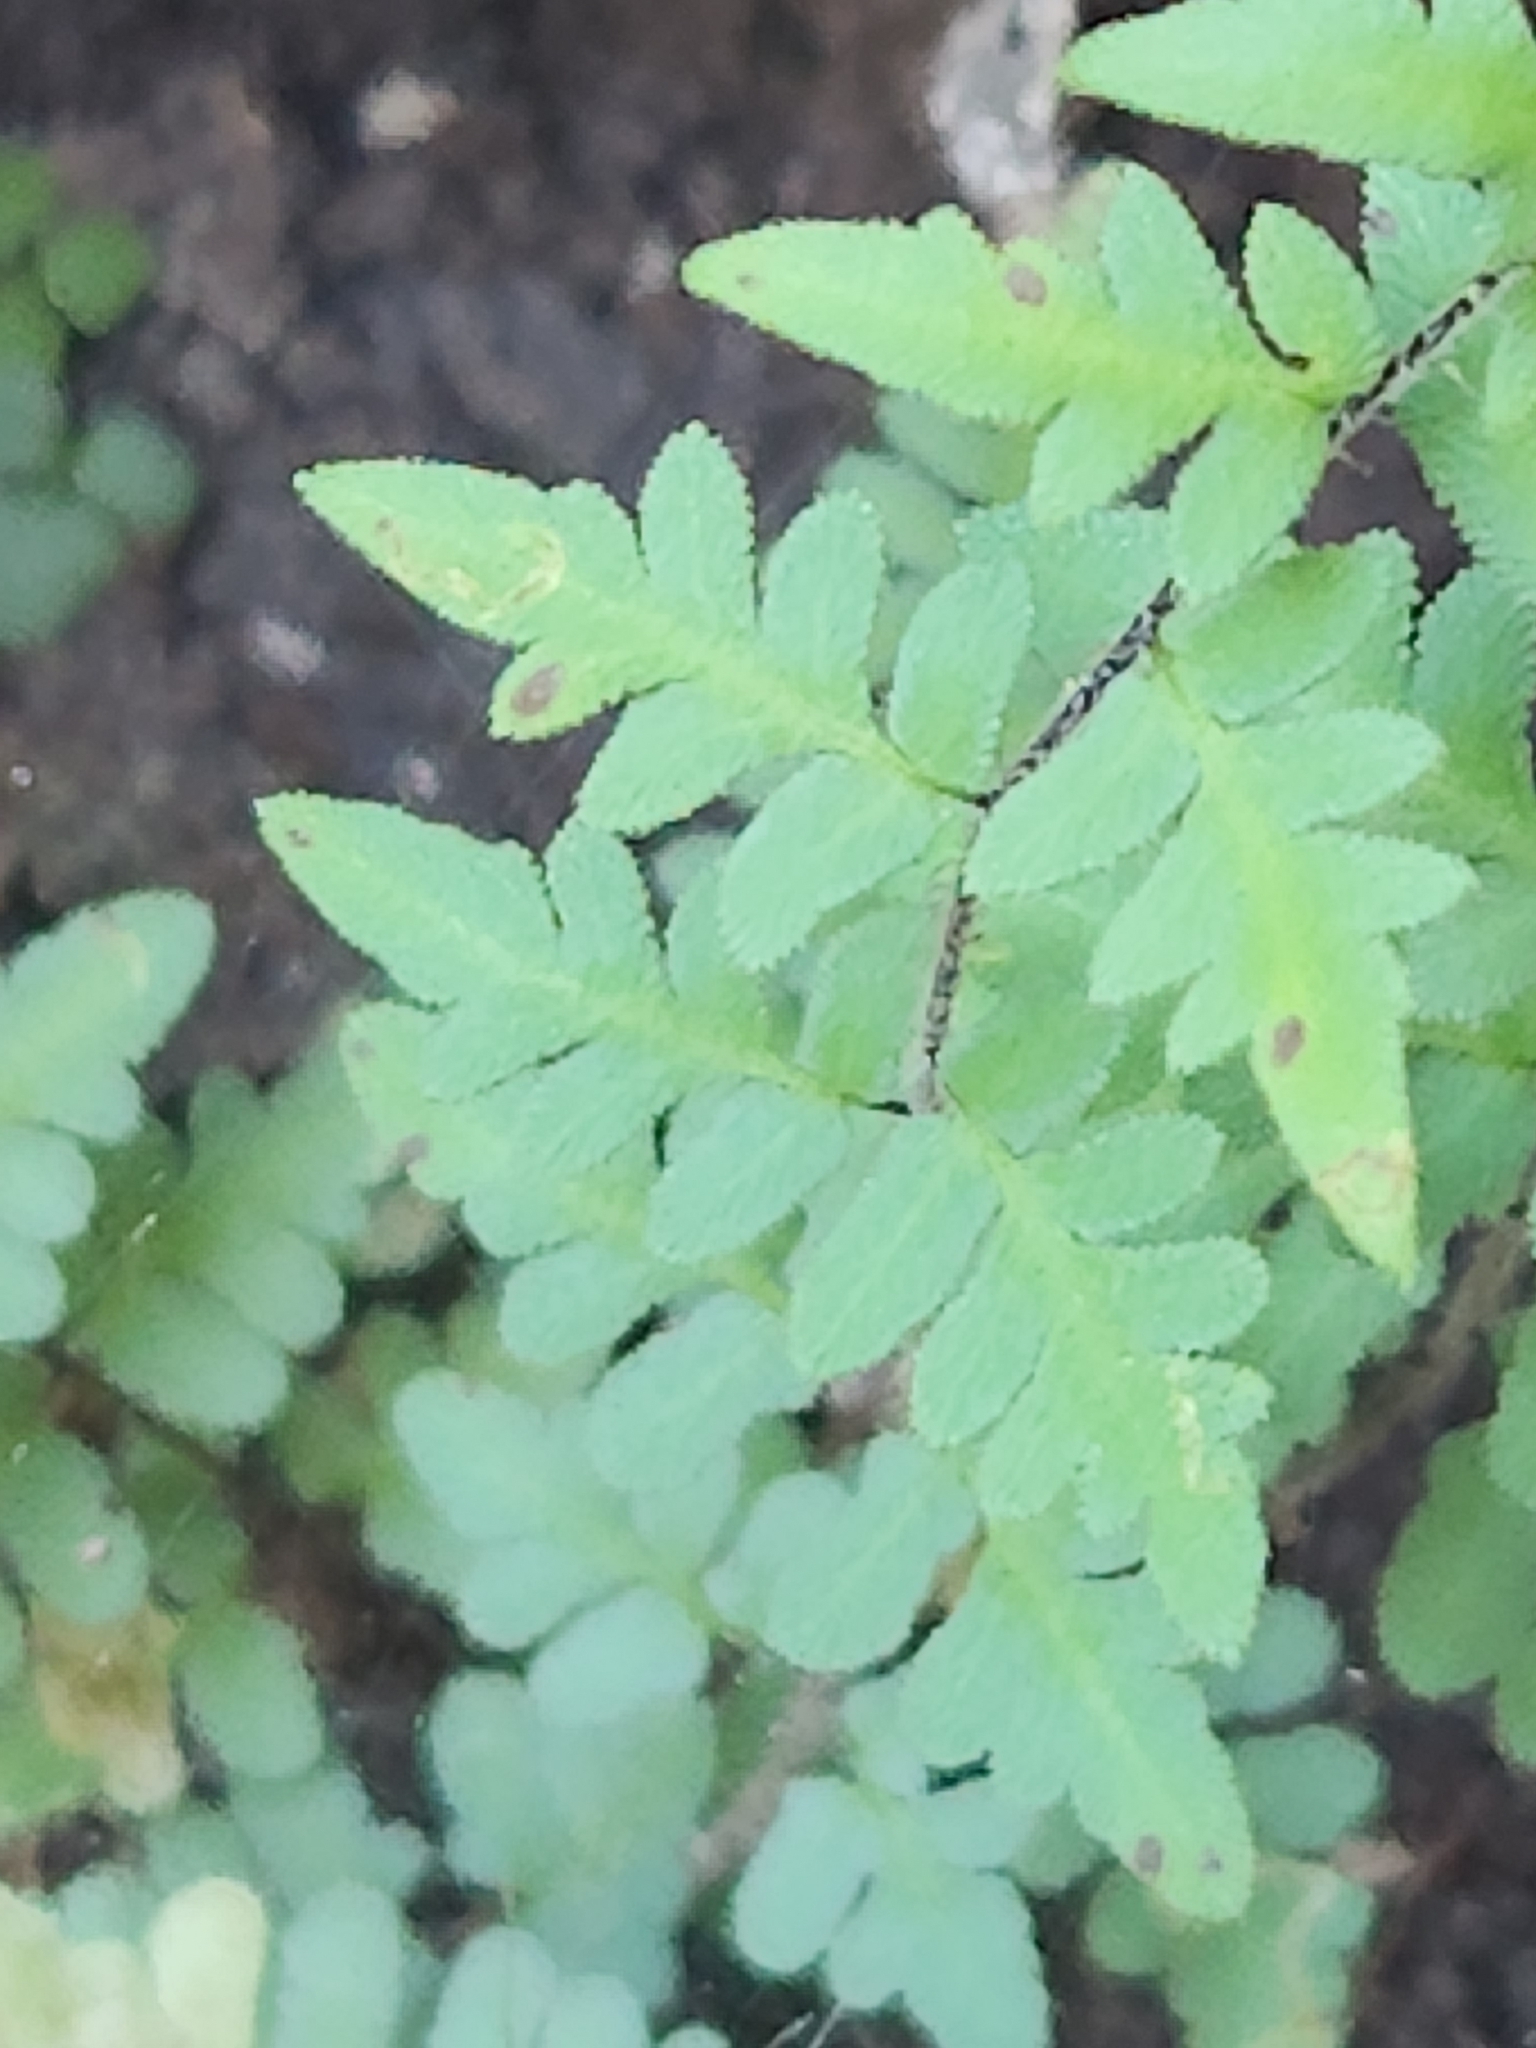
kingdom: Plantae
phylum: Tracheophyta
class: Polypodiopsida
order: Polypodiales
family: Pteridaceae
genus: Myriopteris
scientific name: Myriopteris scabra
